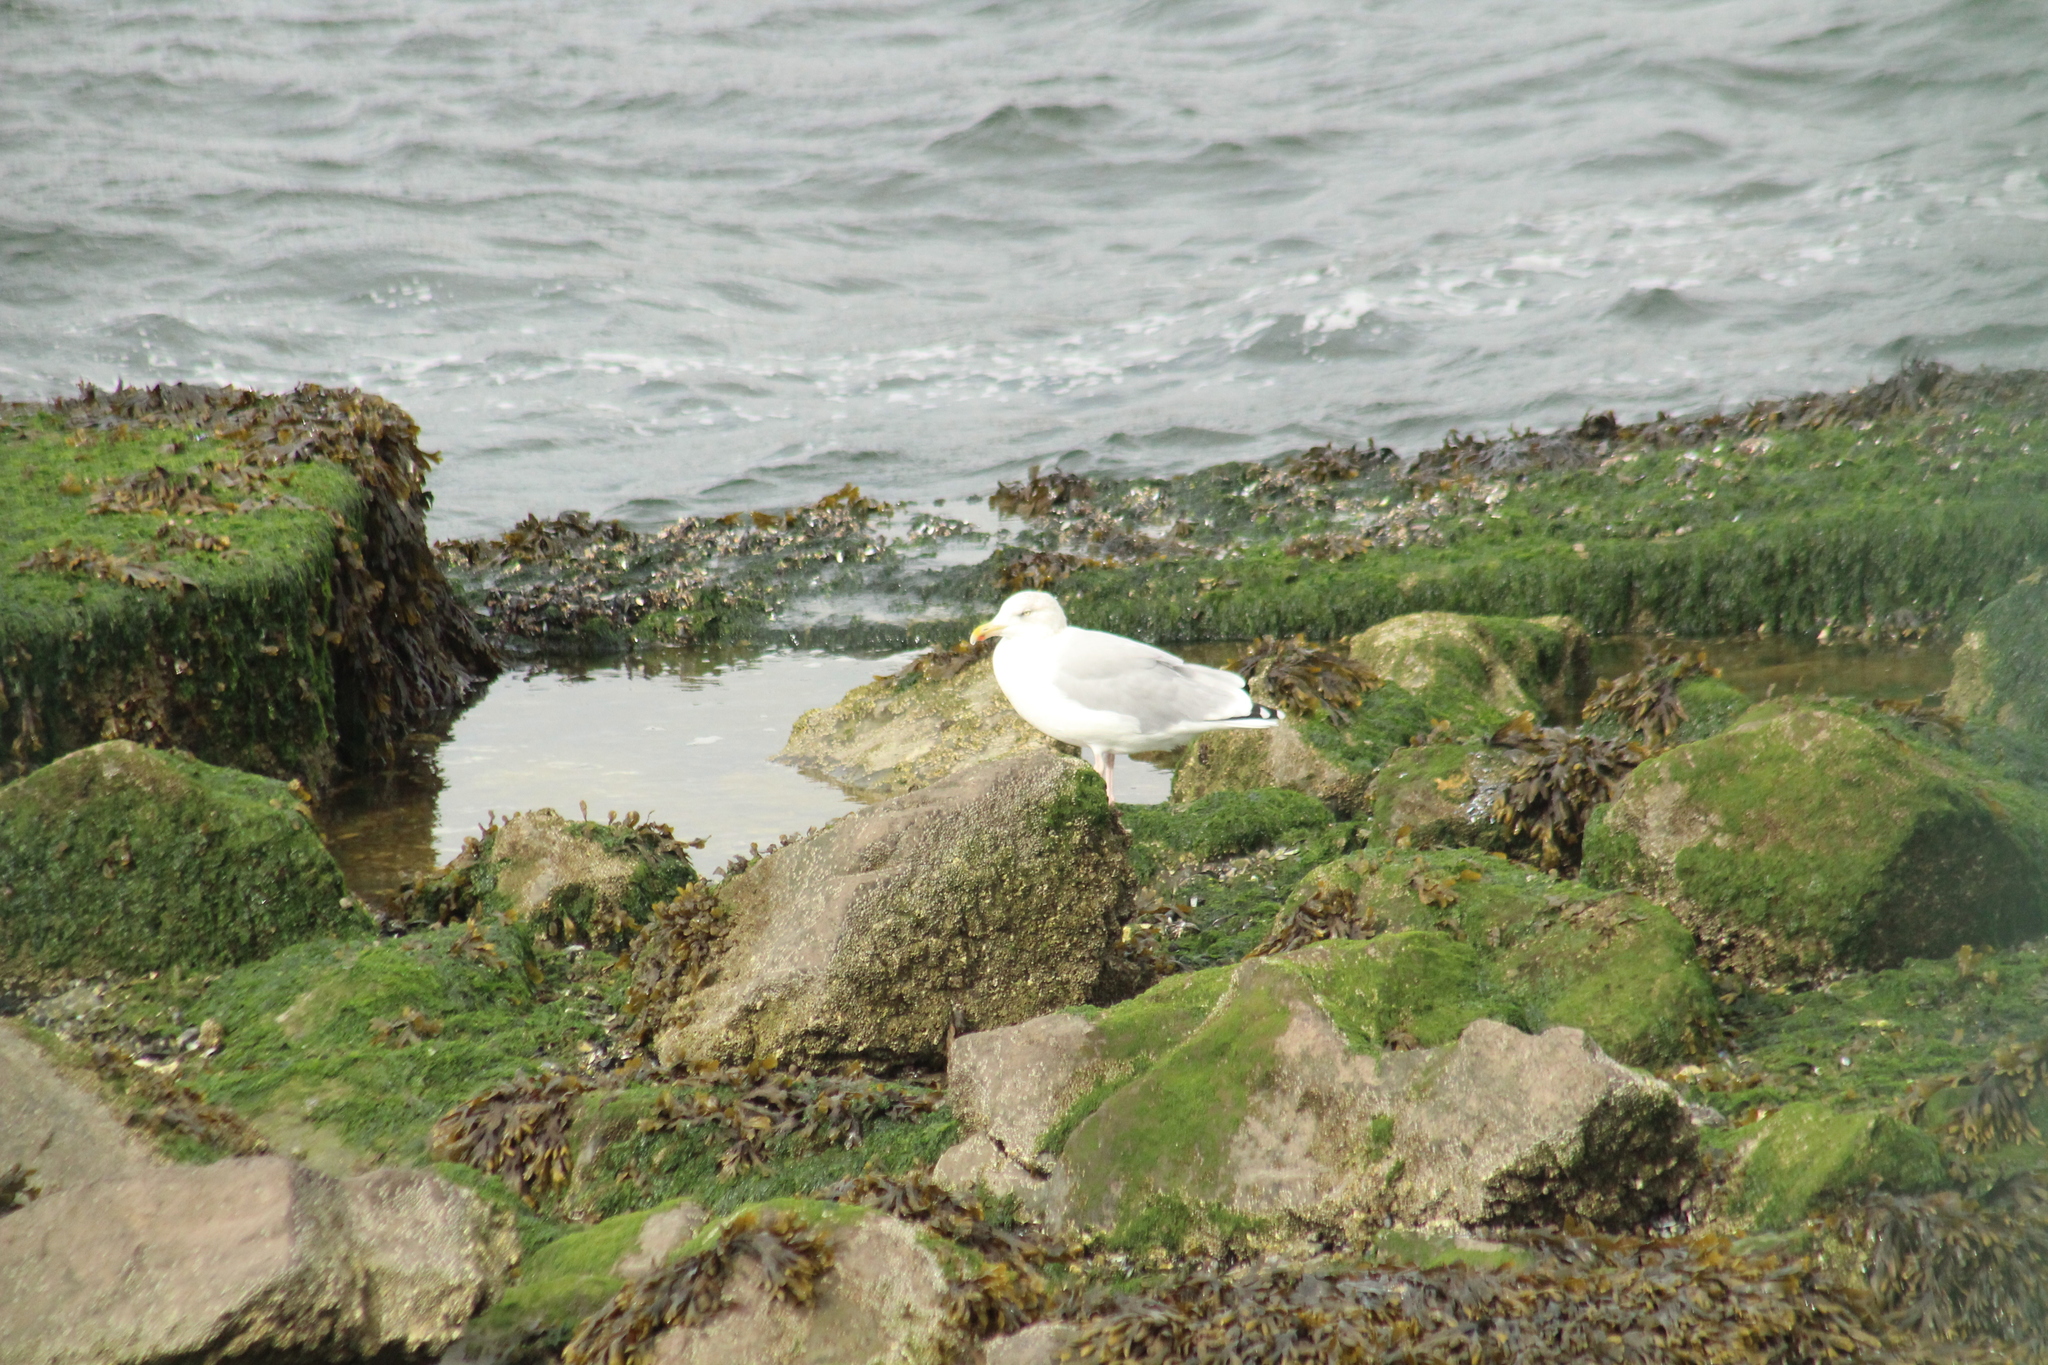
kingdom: Animalia
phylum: Chordata
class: Aves
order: Charadriiformes
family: Laridae
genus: Larus
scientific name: Larus argentatus
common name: Herring gull
